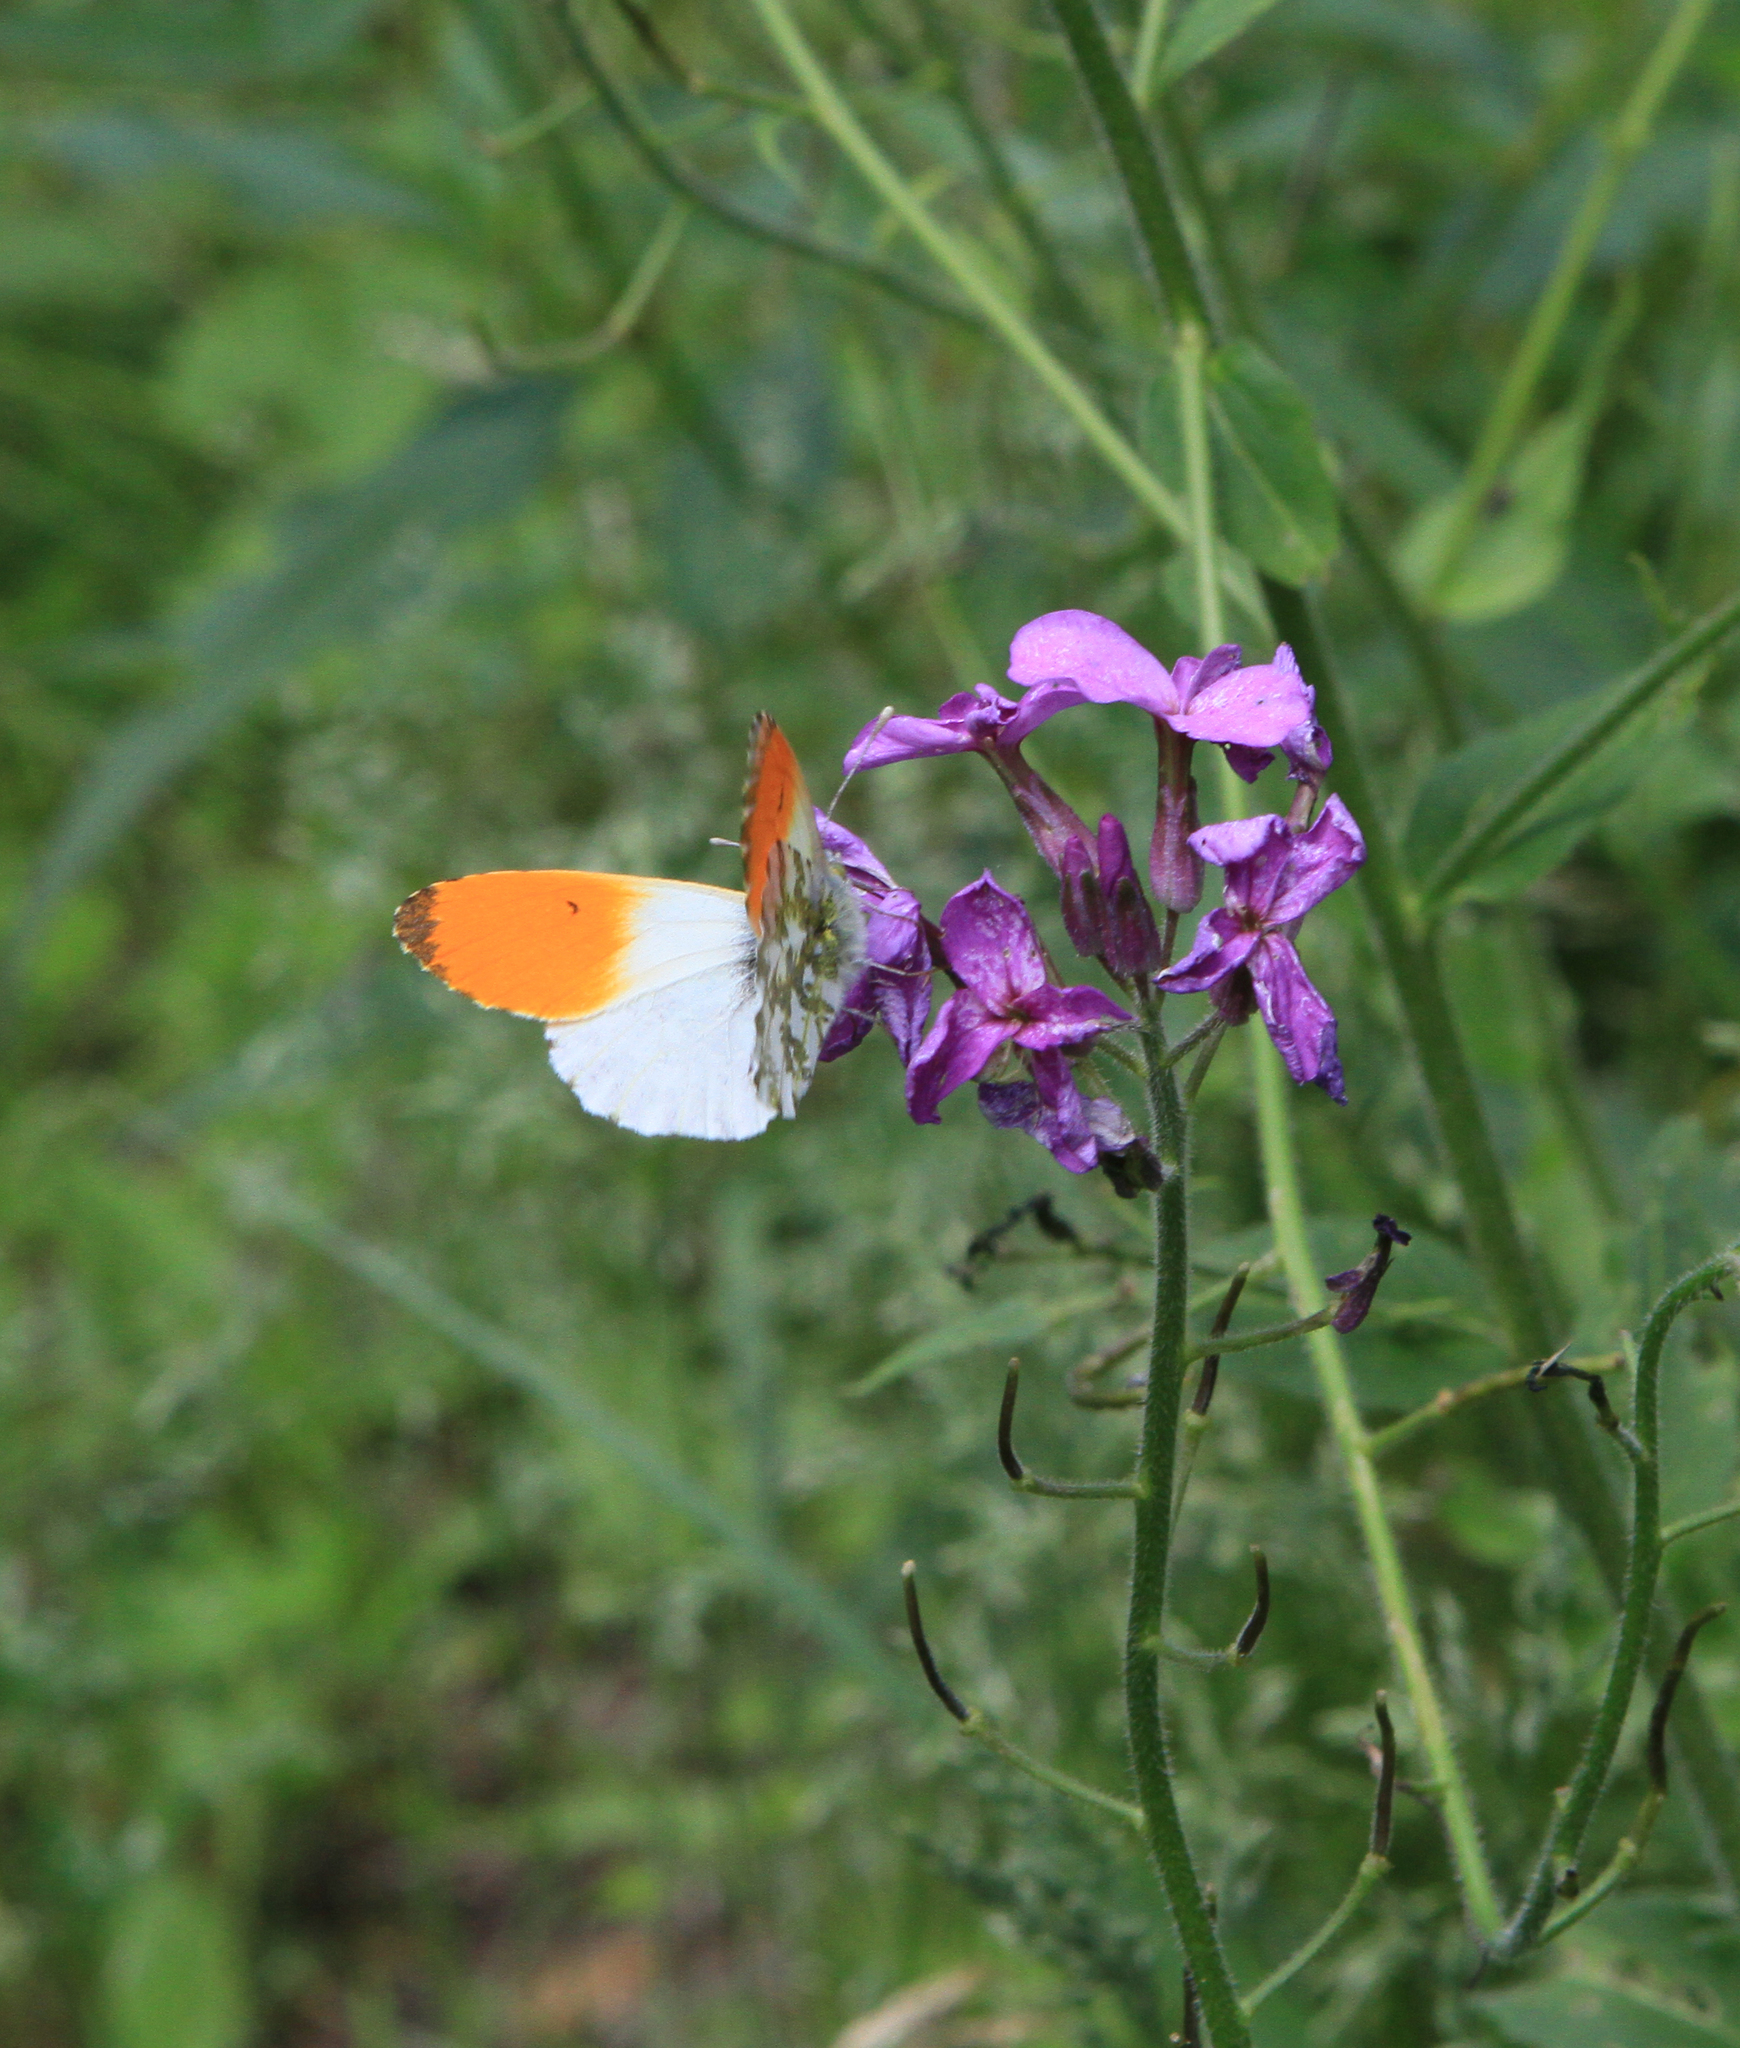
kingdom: Animalia
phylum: Arthropoda
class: Insecta
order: Lepidoptera
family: Pieridae
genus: Anthocharis
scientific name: Anthocharis cardamines
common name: Orange-tip
